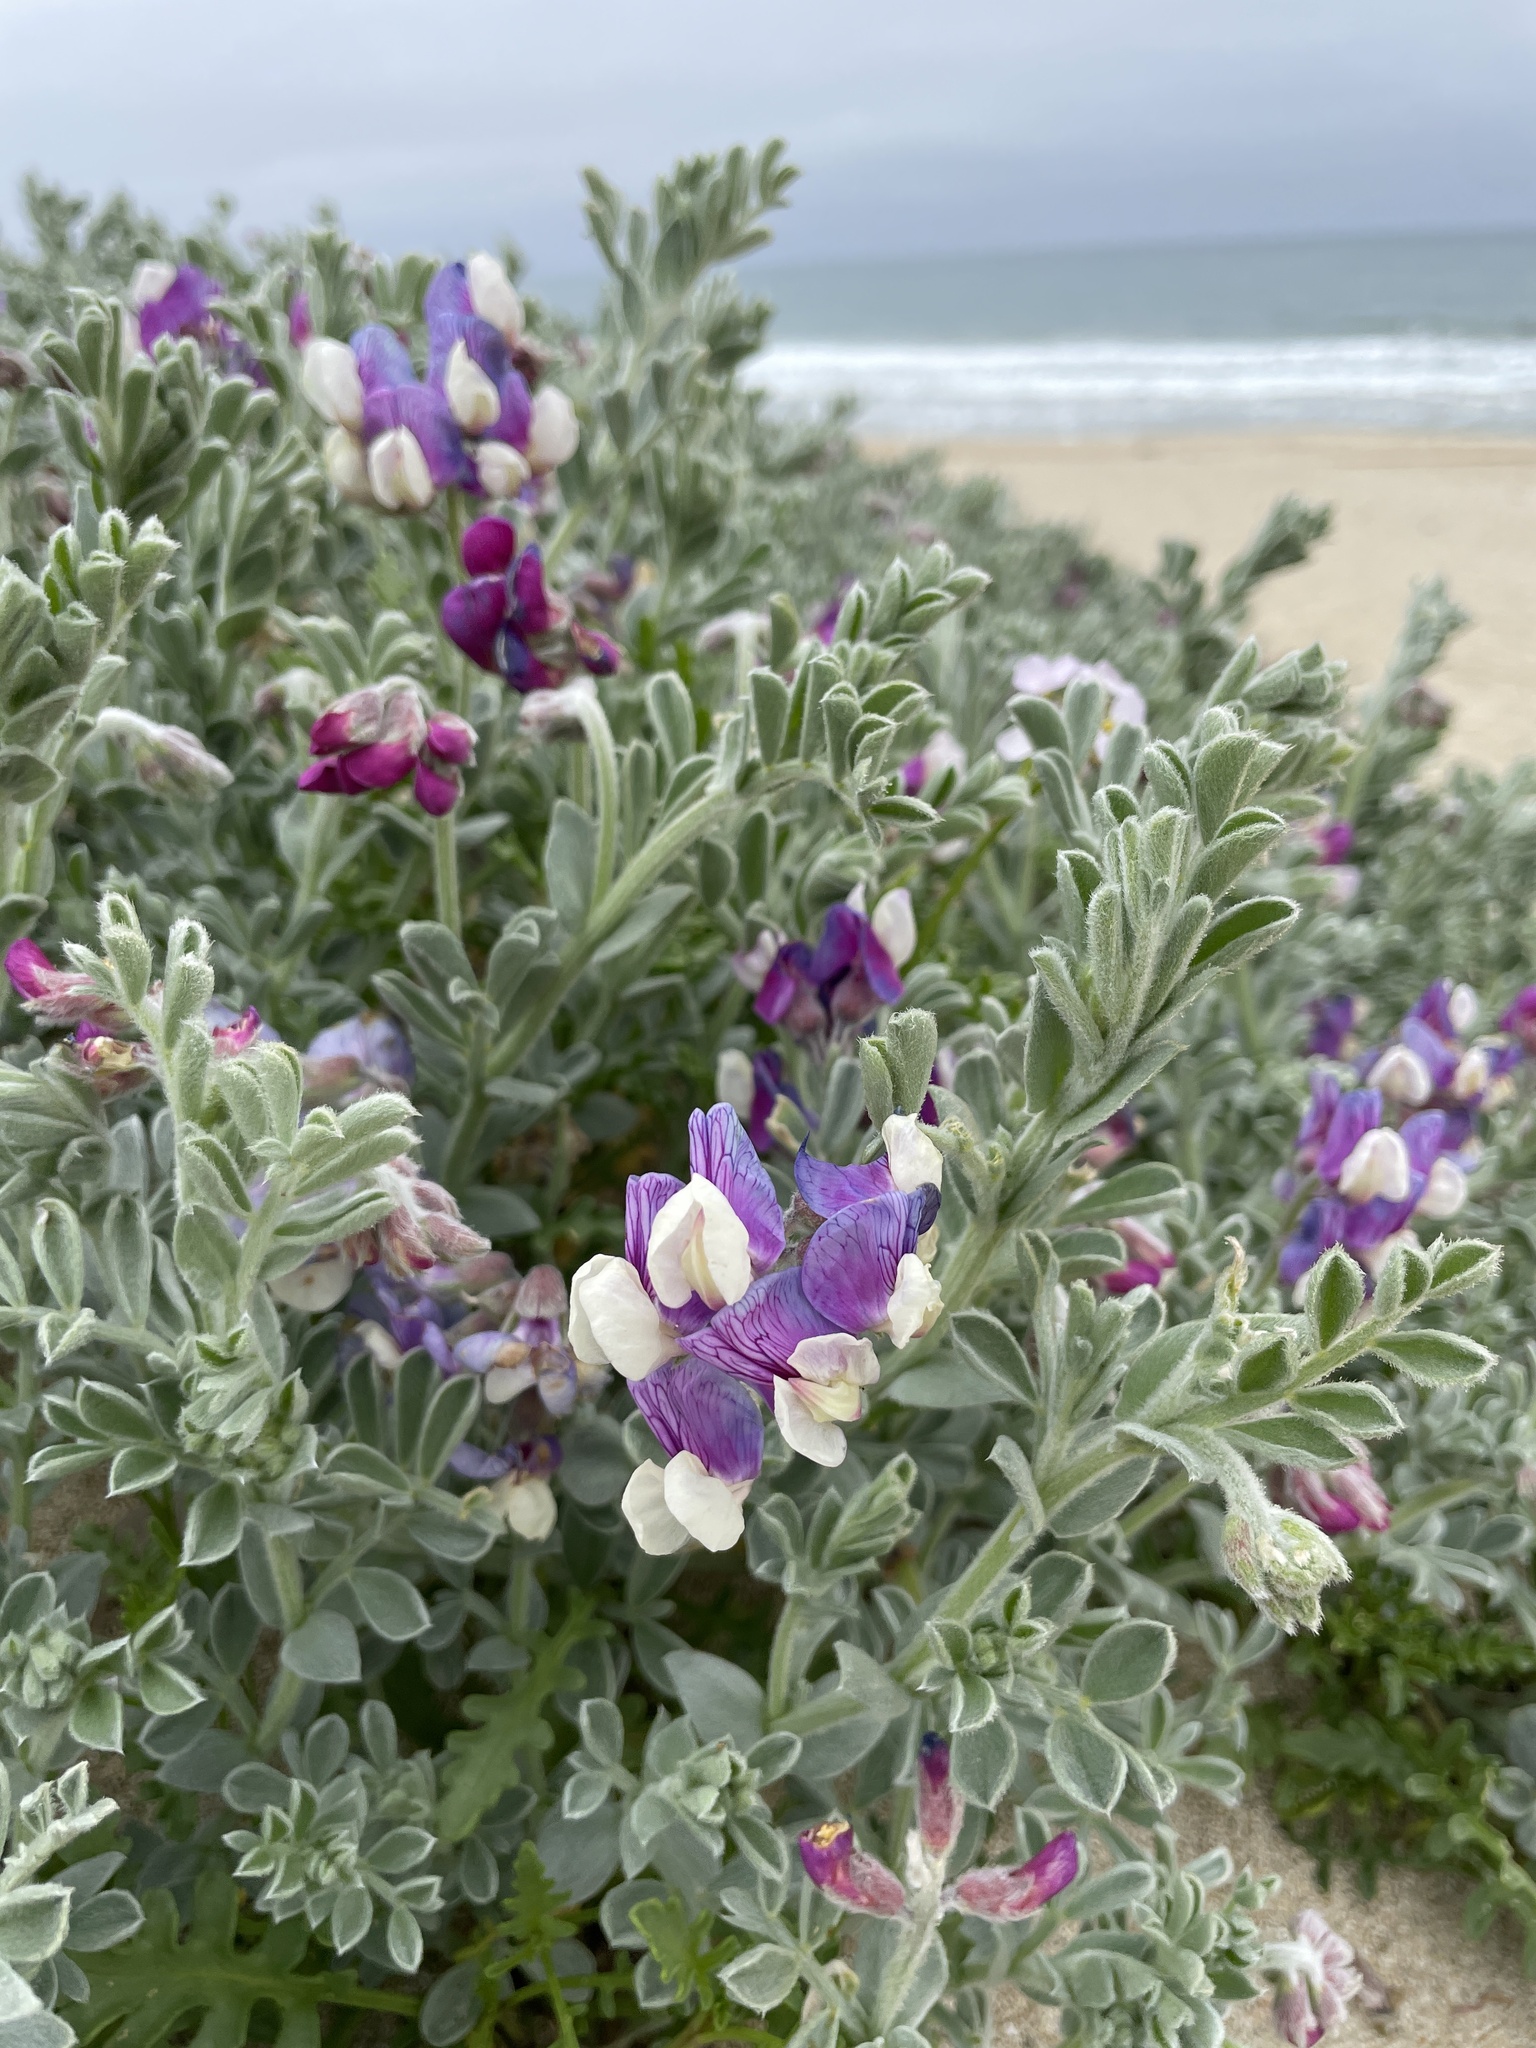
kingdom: Plantae
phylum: Tracheophyta
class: Magnoliopsida
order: Fabales
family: Fabaceae
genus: Lathyrus
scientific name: Lathyrus littoralis
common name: Dune sweet pea
